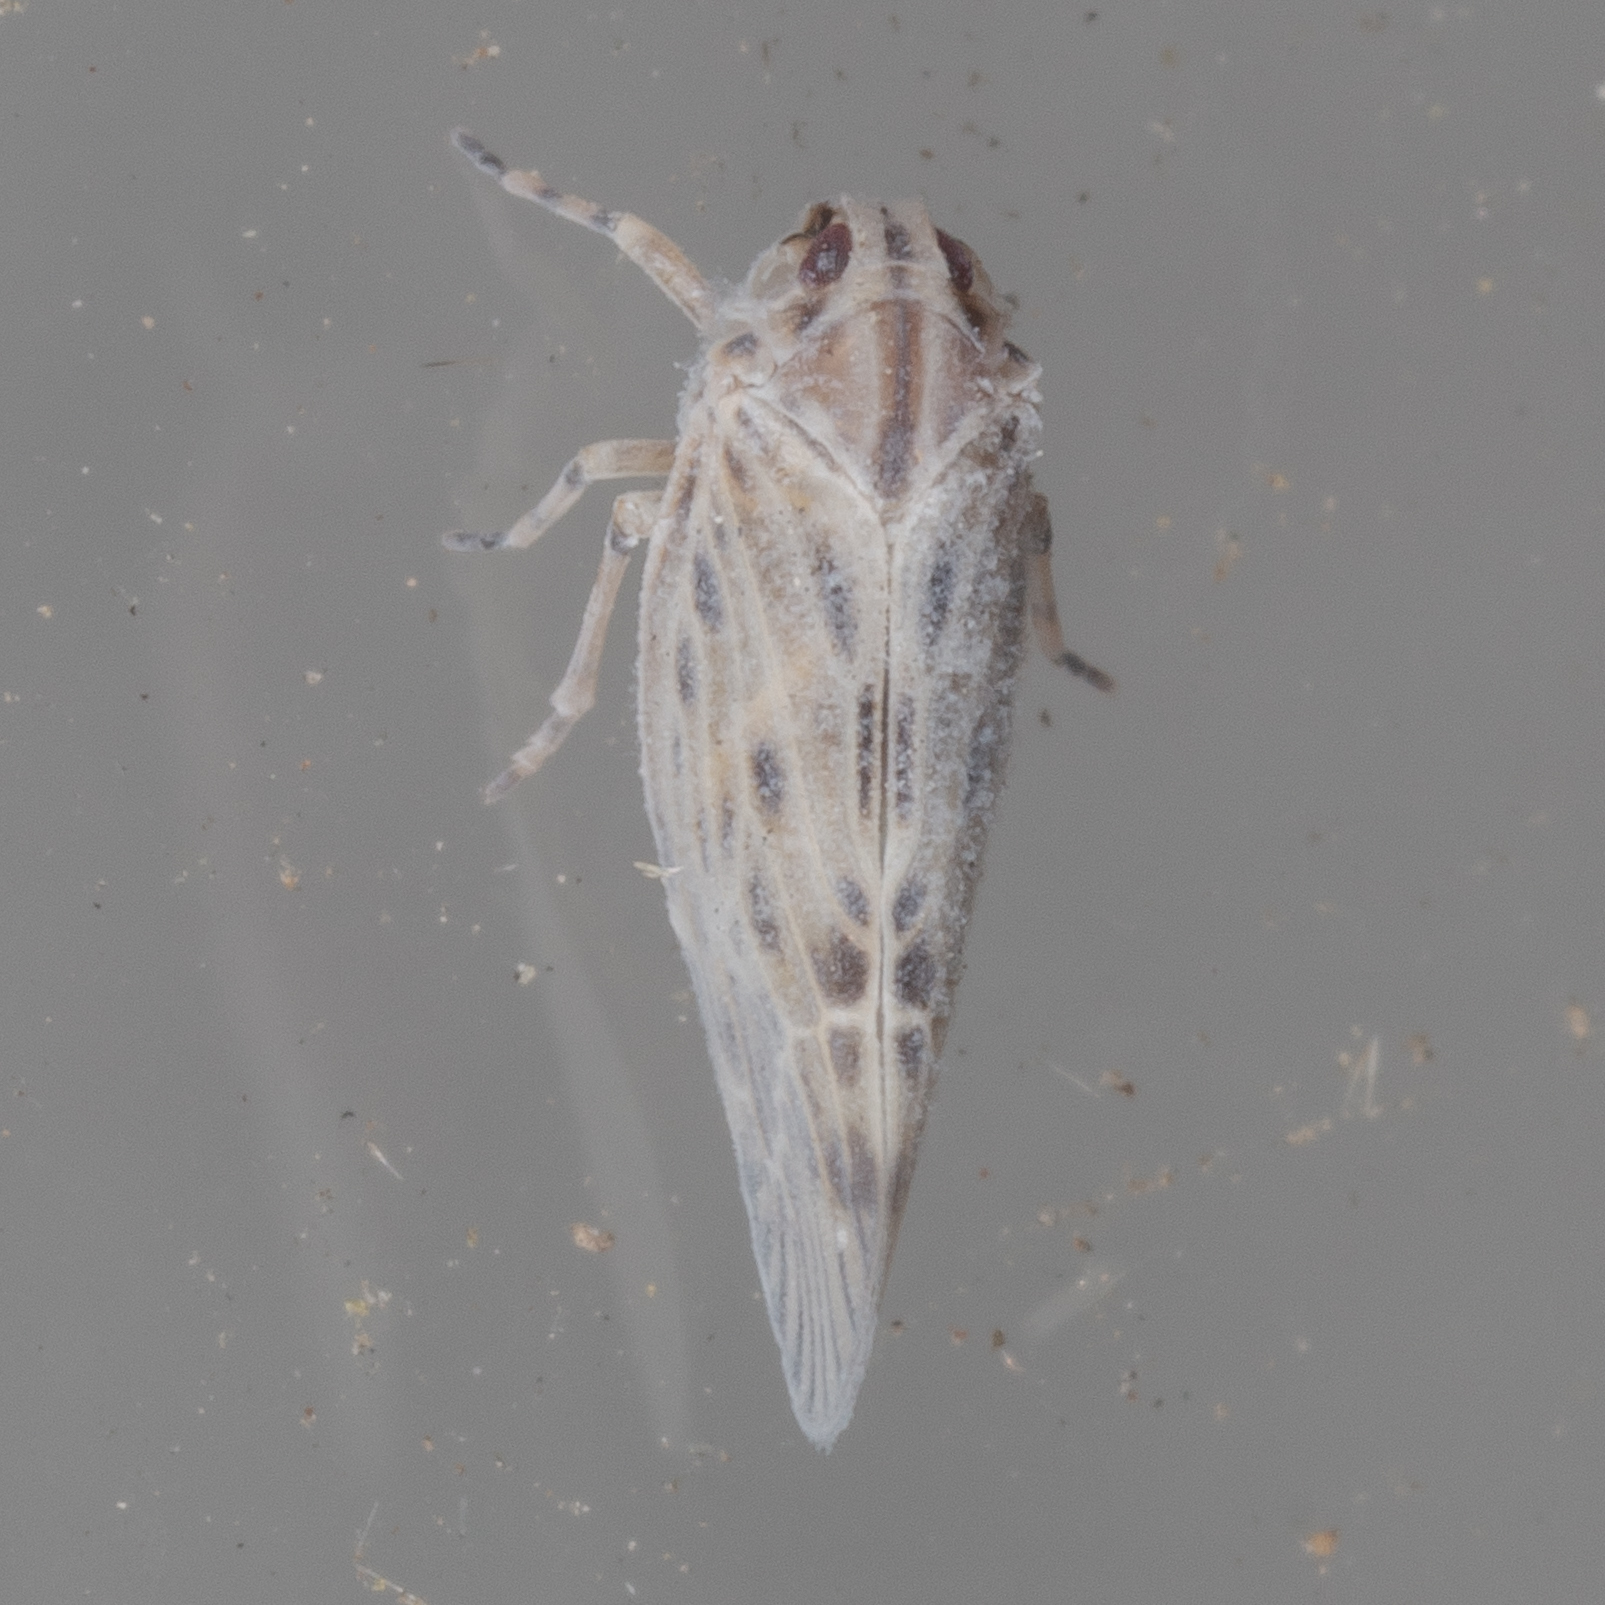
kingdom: Animalia
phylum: Arthropoda
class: Insecta
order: Hemiptera
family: Derbidae
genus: Cedusa
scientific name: Cedusa maculata
